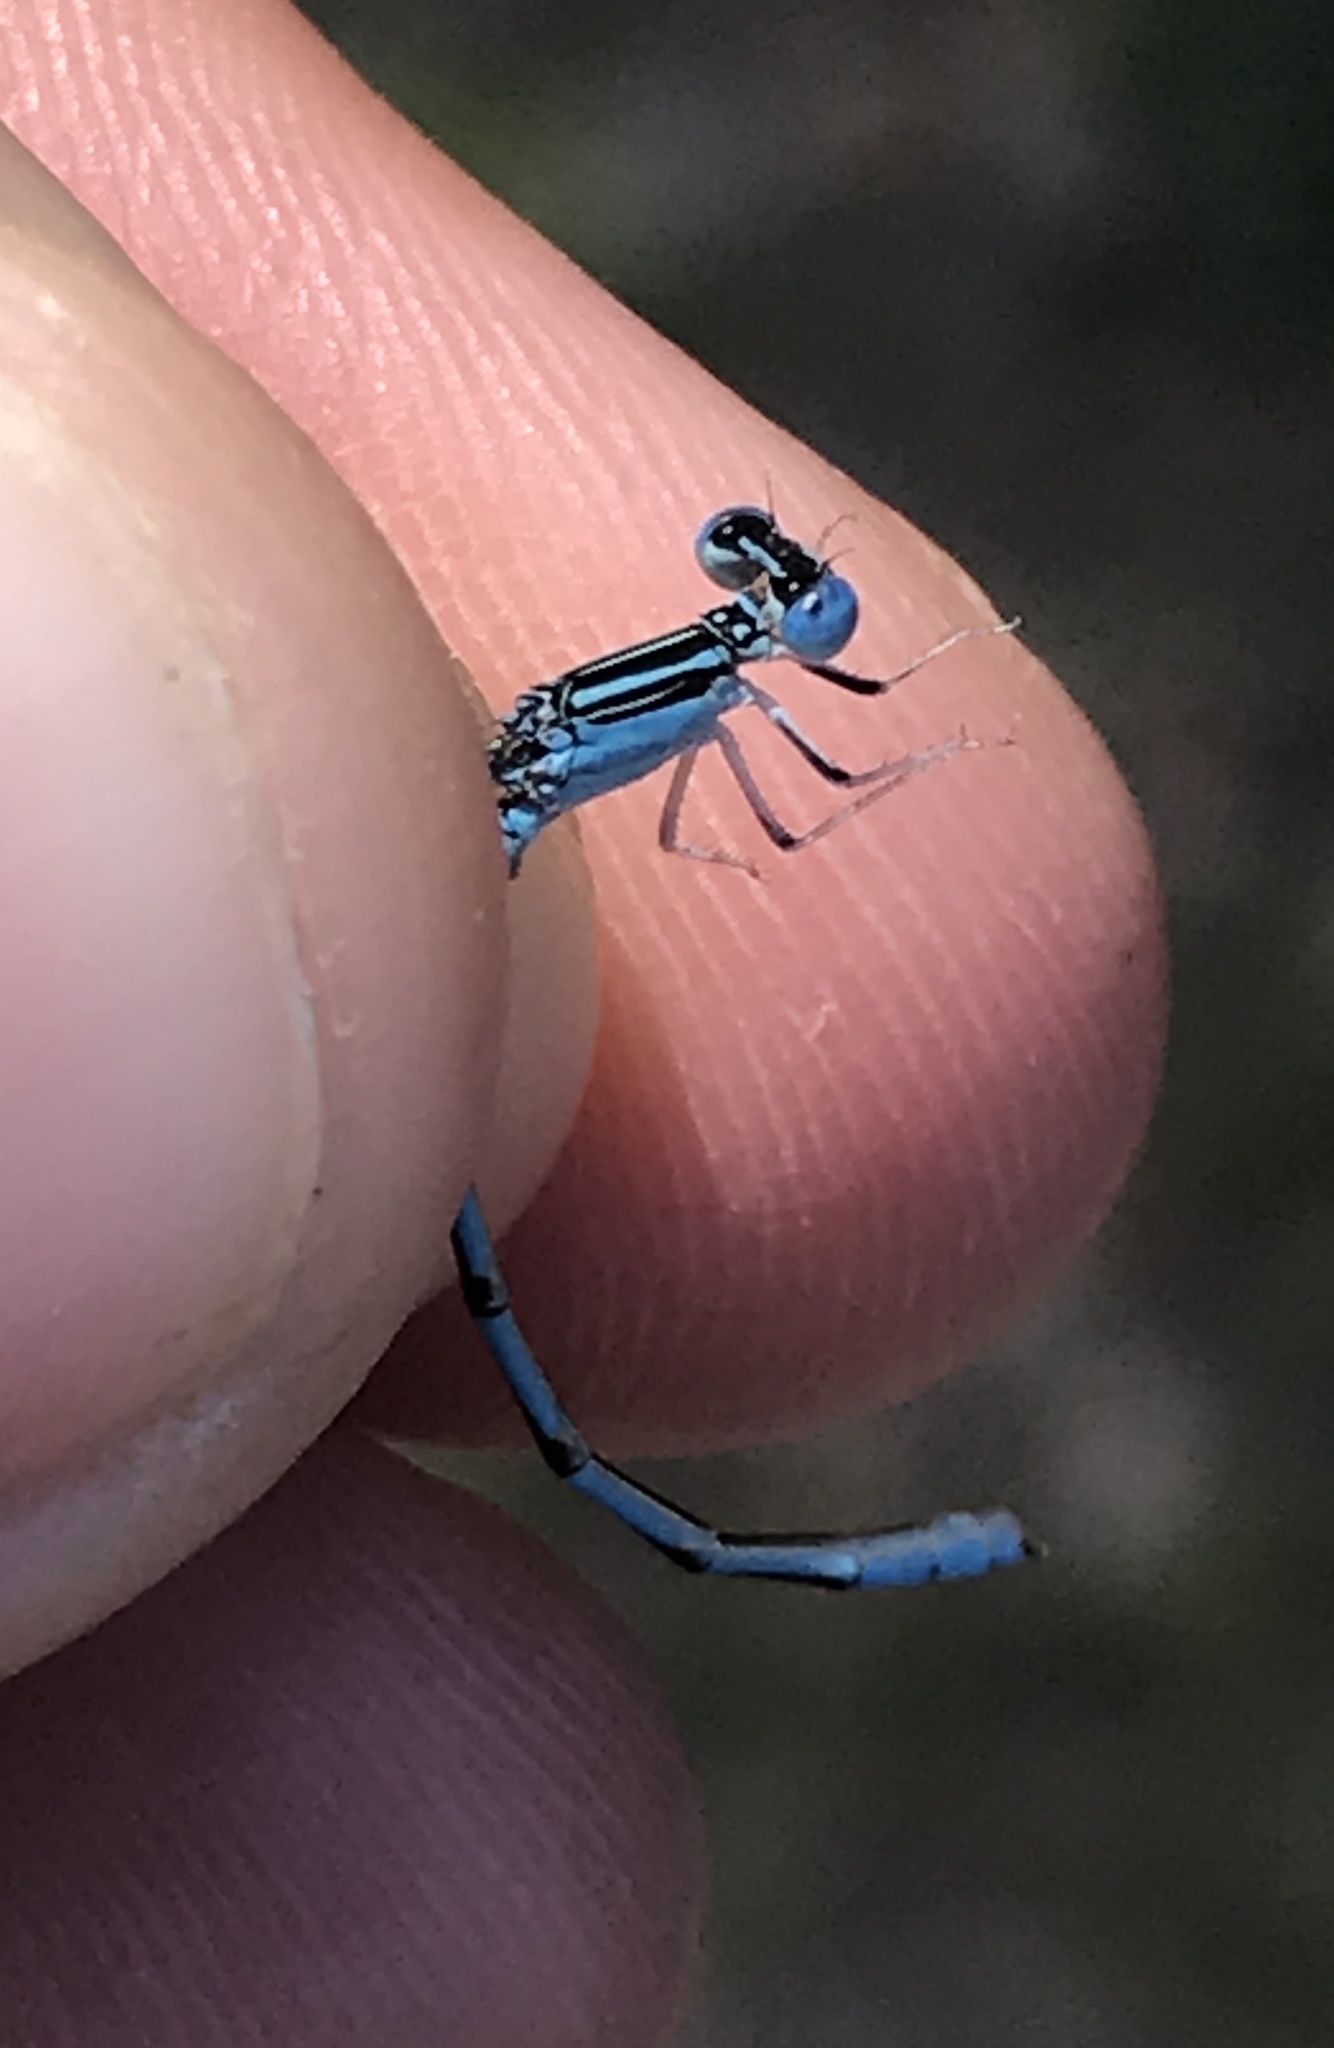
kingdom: Animalia
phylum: Arthropoda
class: Insecta
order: Odonata
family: Coenagrionidae
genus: Enallagma
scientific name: Enallagma basidens
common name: Double-striped bluet
